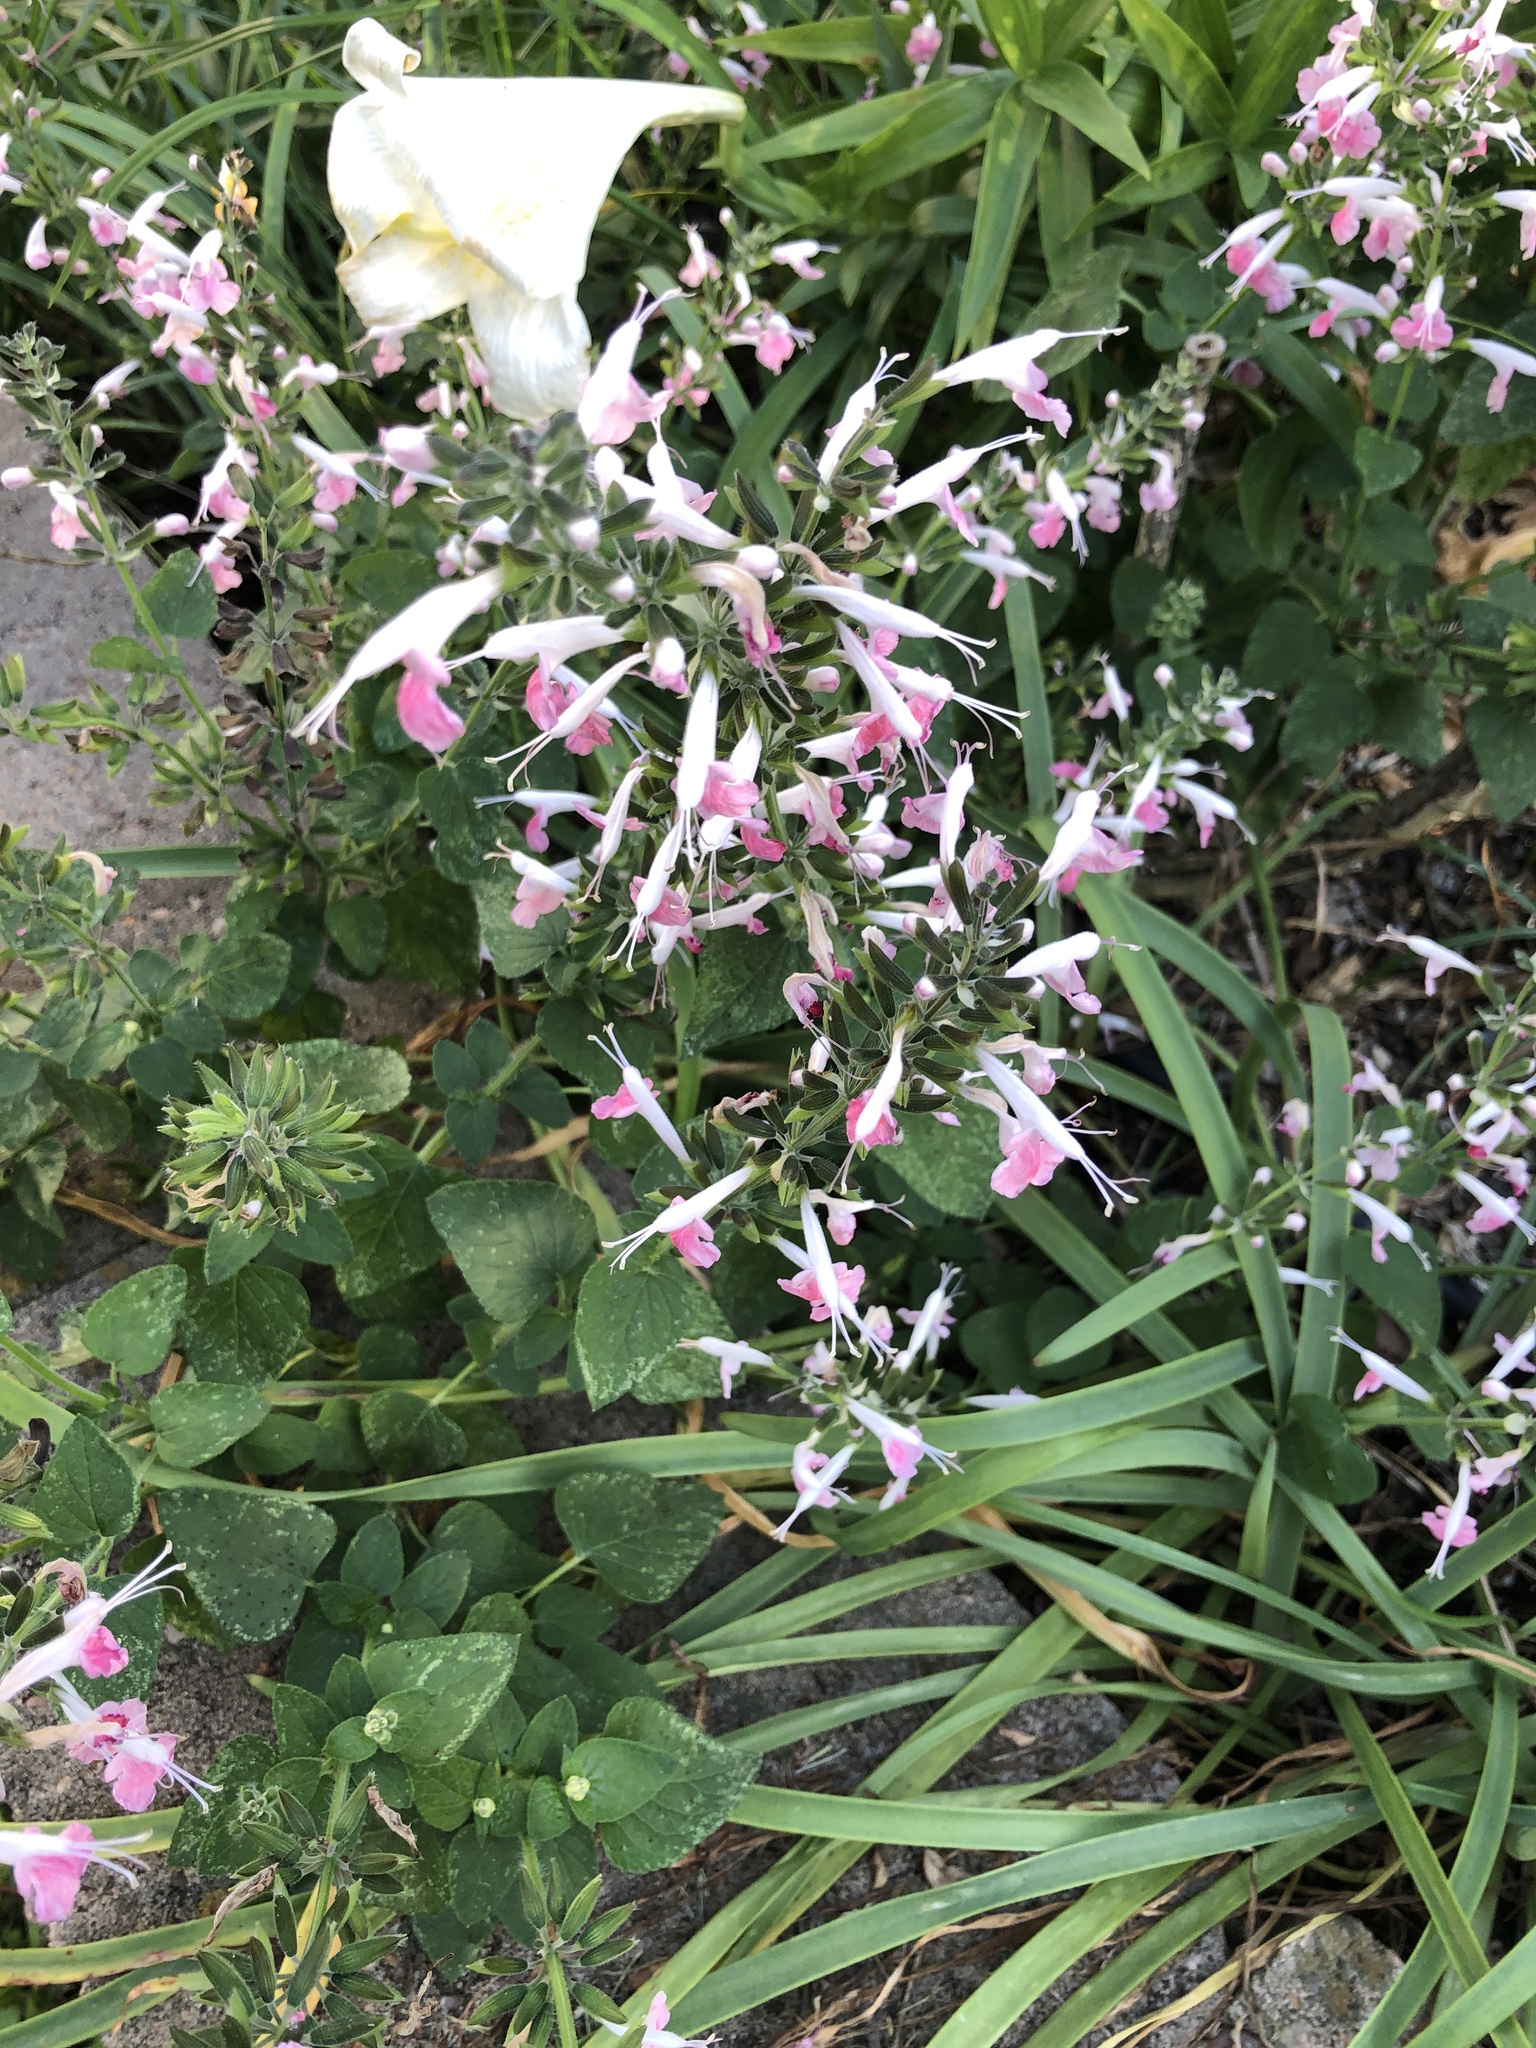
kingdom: Plantae
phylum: Tracheophyta
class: Magnoliopsida
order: Lamiales
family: Lamiaceae
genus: Salvia
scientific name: Salvia coccinea
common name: Blood sage
